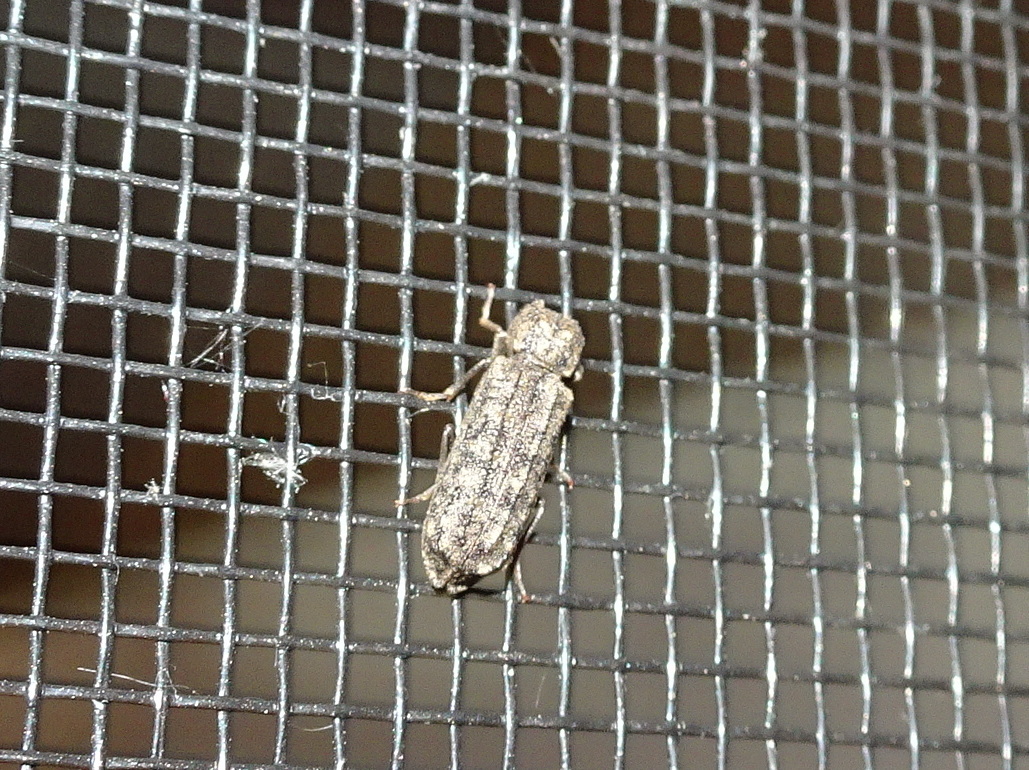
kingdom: Animalia
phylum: Arthropoda
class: Insecta
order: Coleoptera
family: Bostrichidae
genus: Lichenophanes
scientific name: Lichenophanes bicornis
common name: Two-horned powder-post beetle
